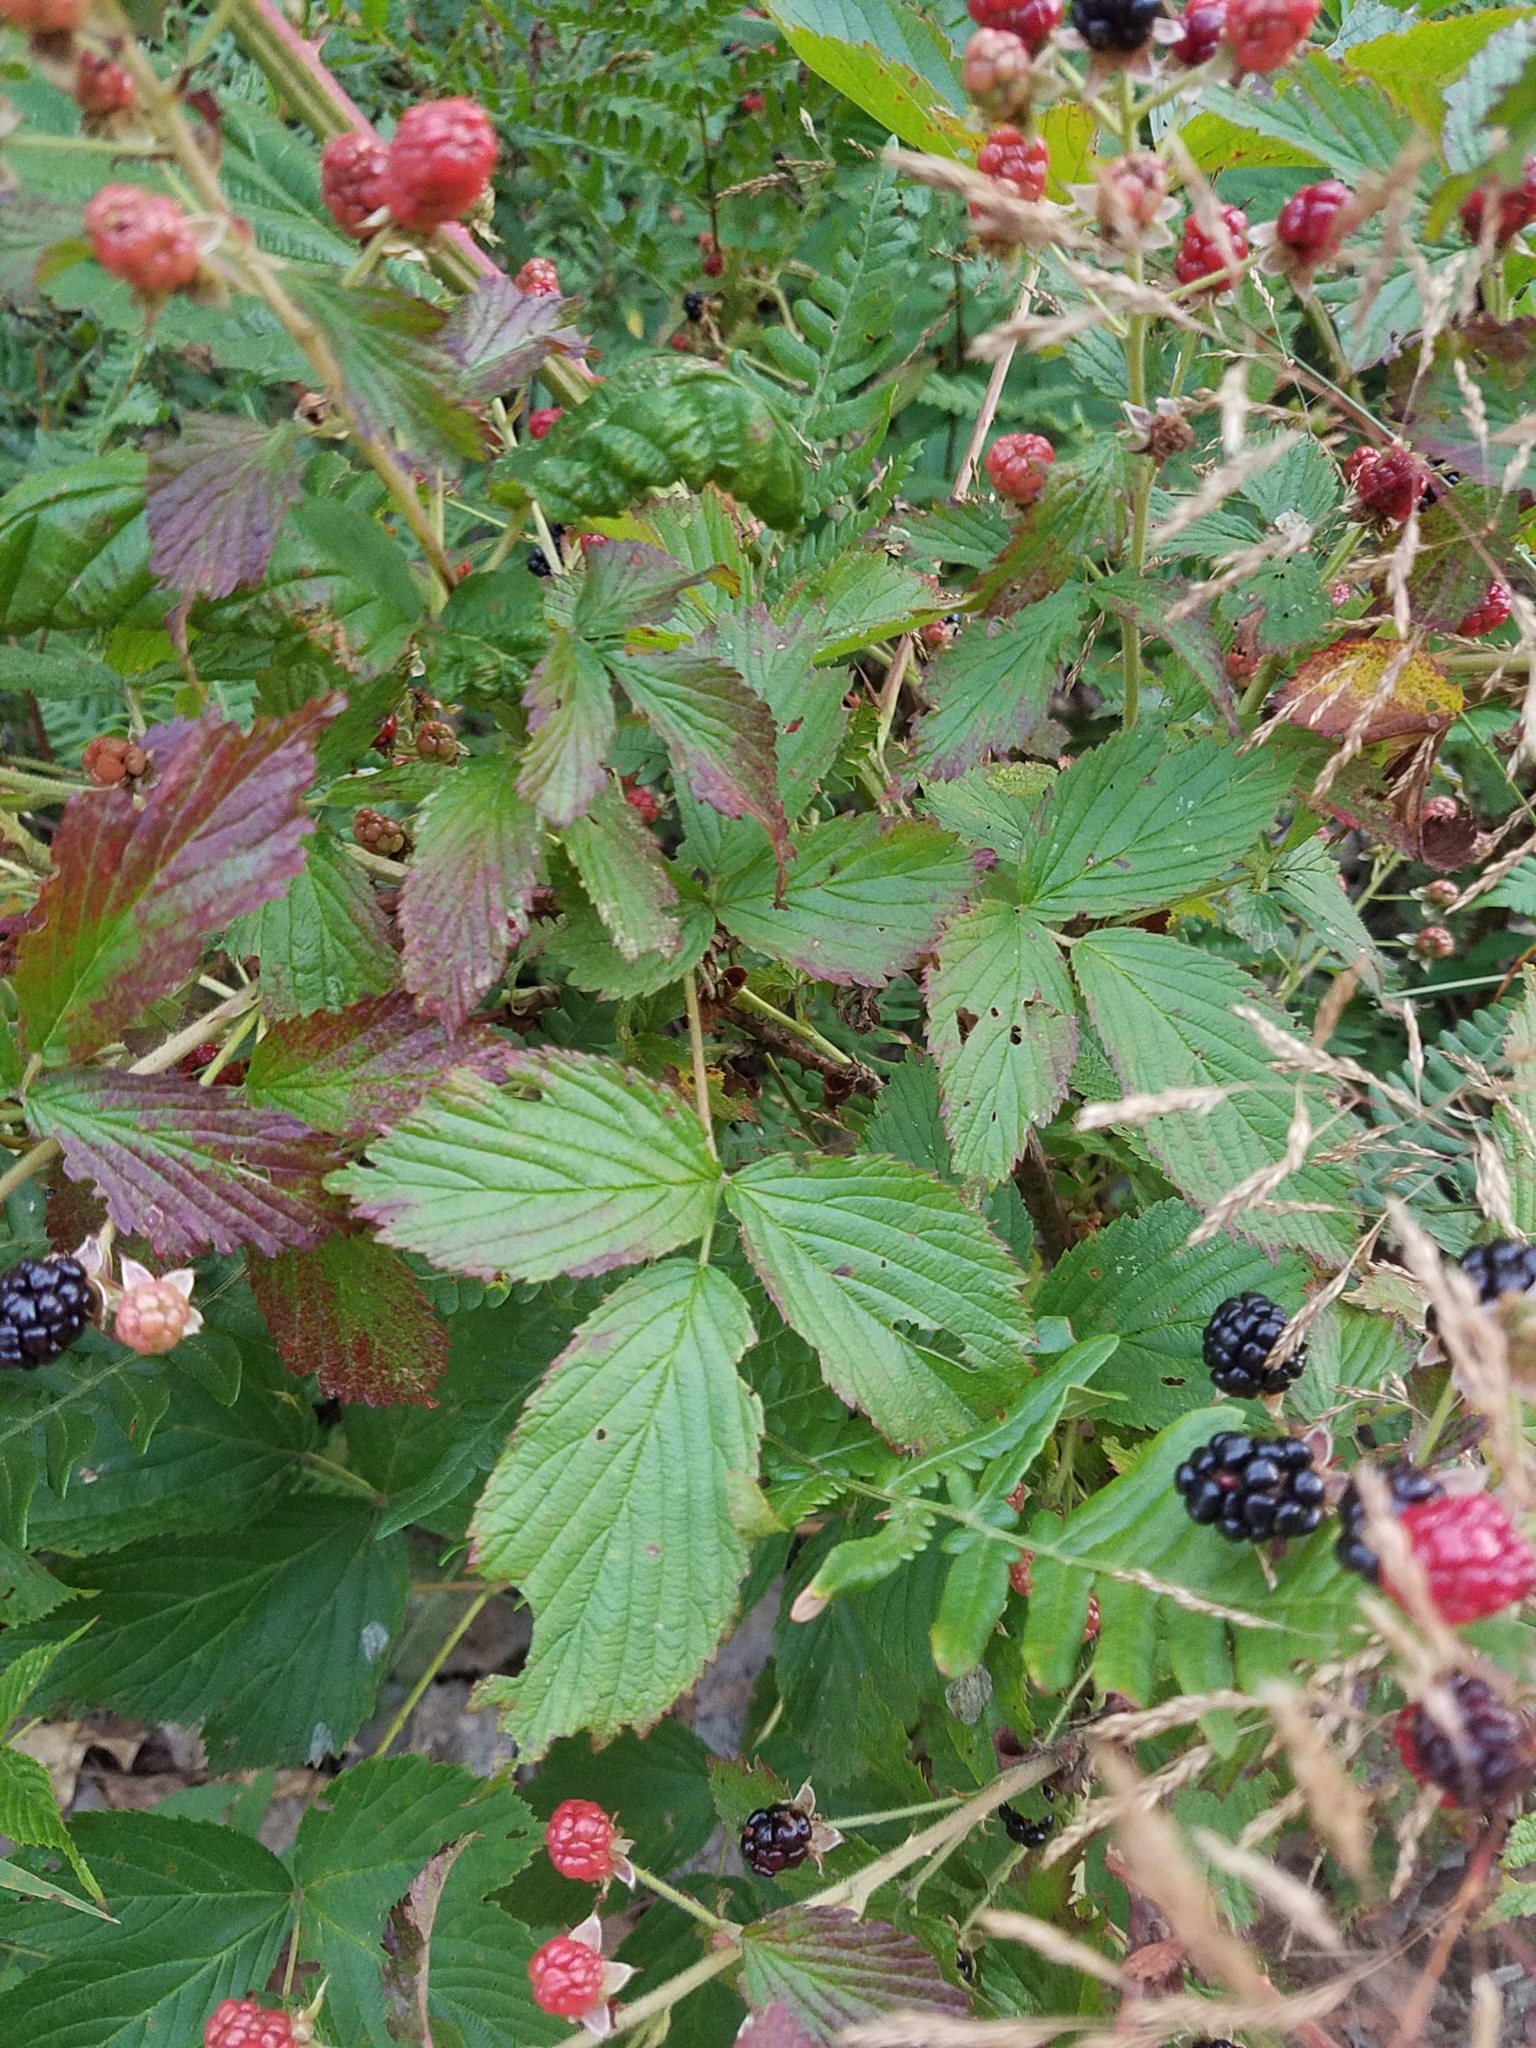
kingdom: Plantae
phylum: Tracheophyta
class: Magnoliopsida
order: Rosales
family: Rosaceae
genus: Rubus
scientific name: Rubus allegheniensis
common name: Allegheny blackberry
